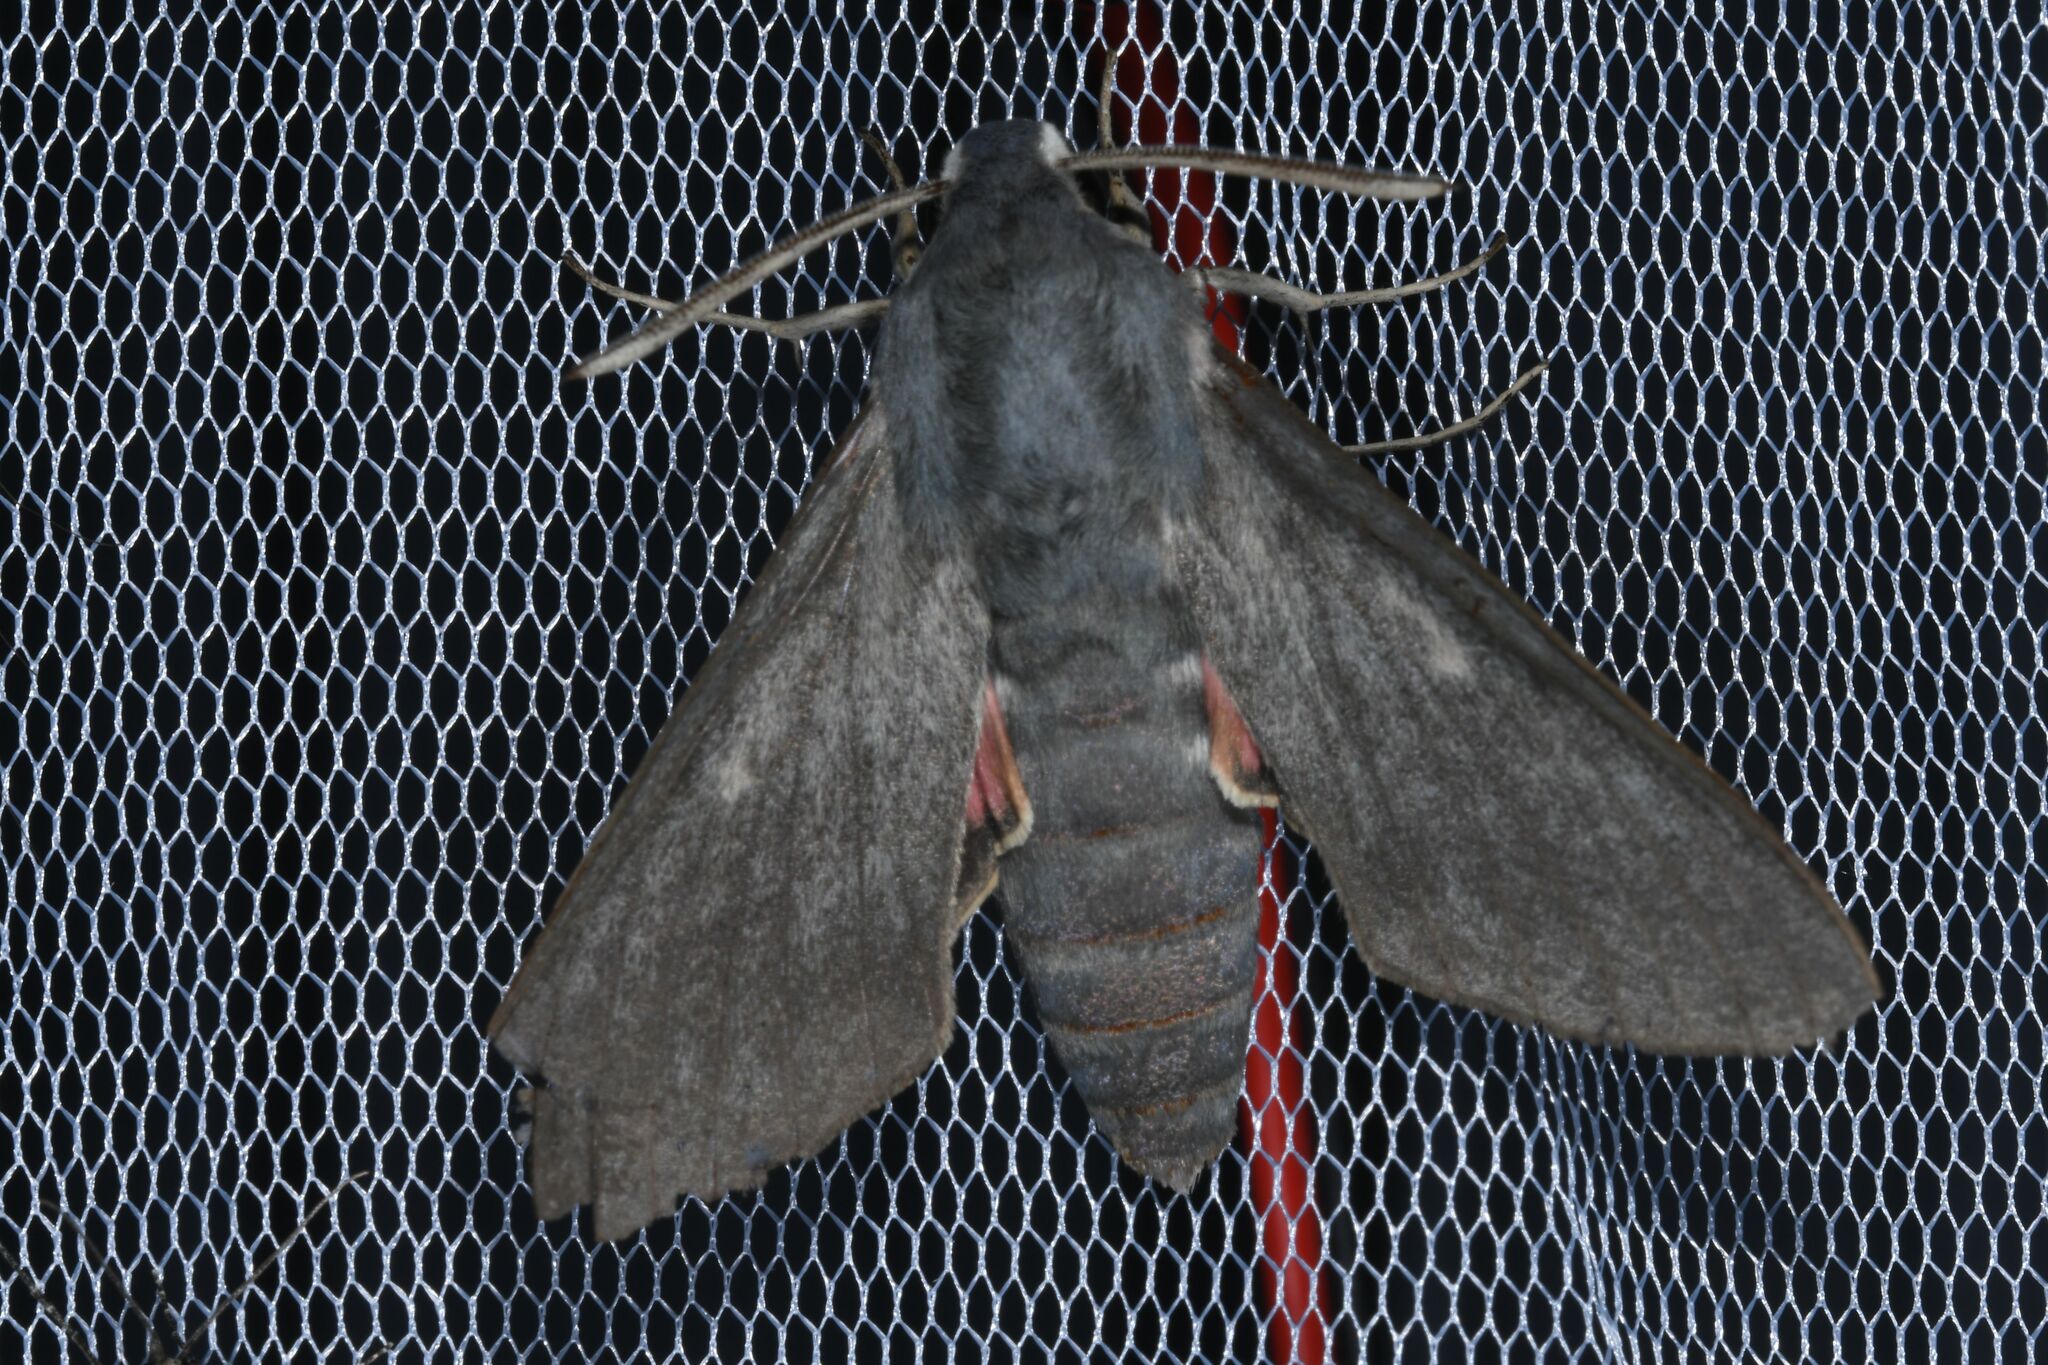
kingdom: Animalia
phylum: Arthropoda
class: Insecta
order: Lepidoptera
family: Sphingidae
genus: Hyles
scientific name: Hyles vespertilio
